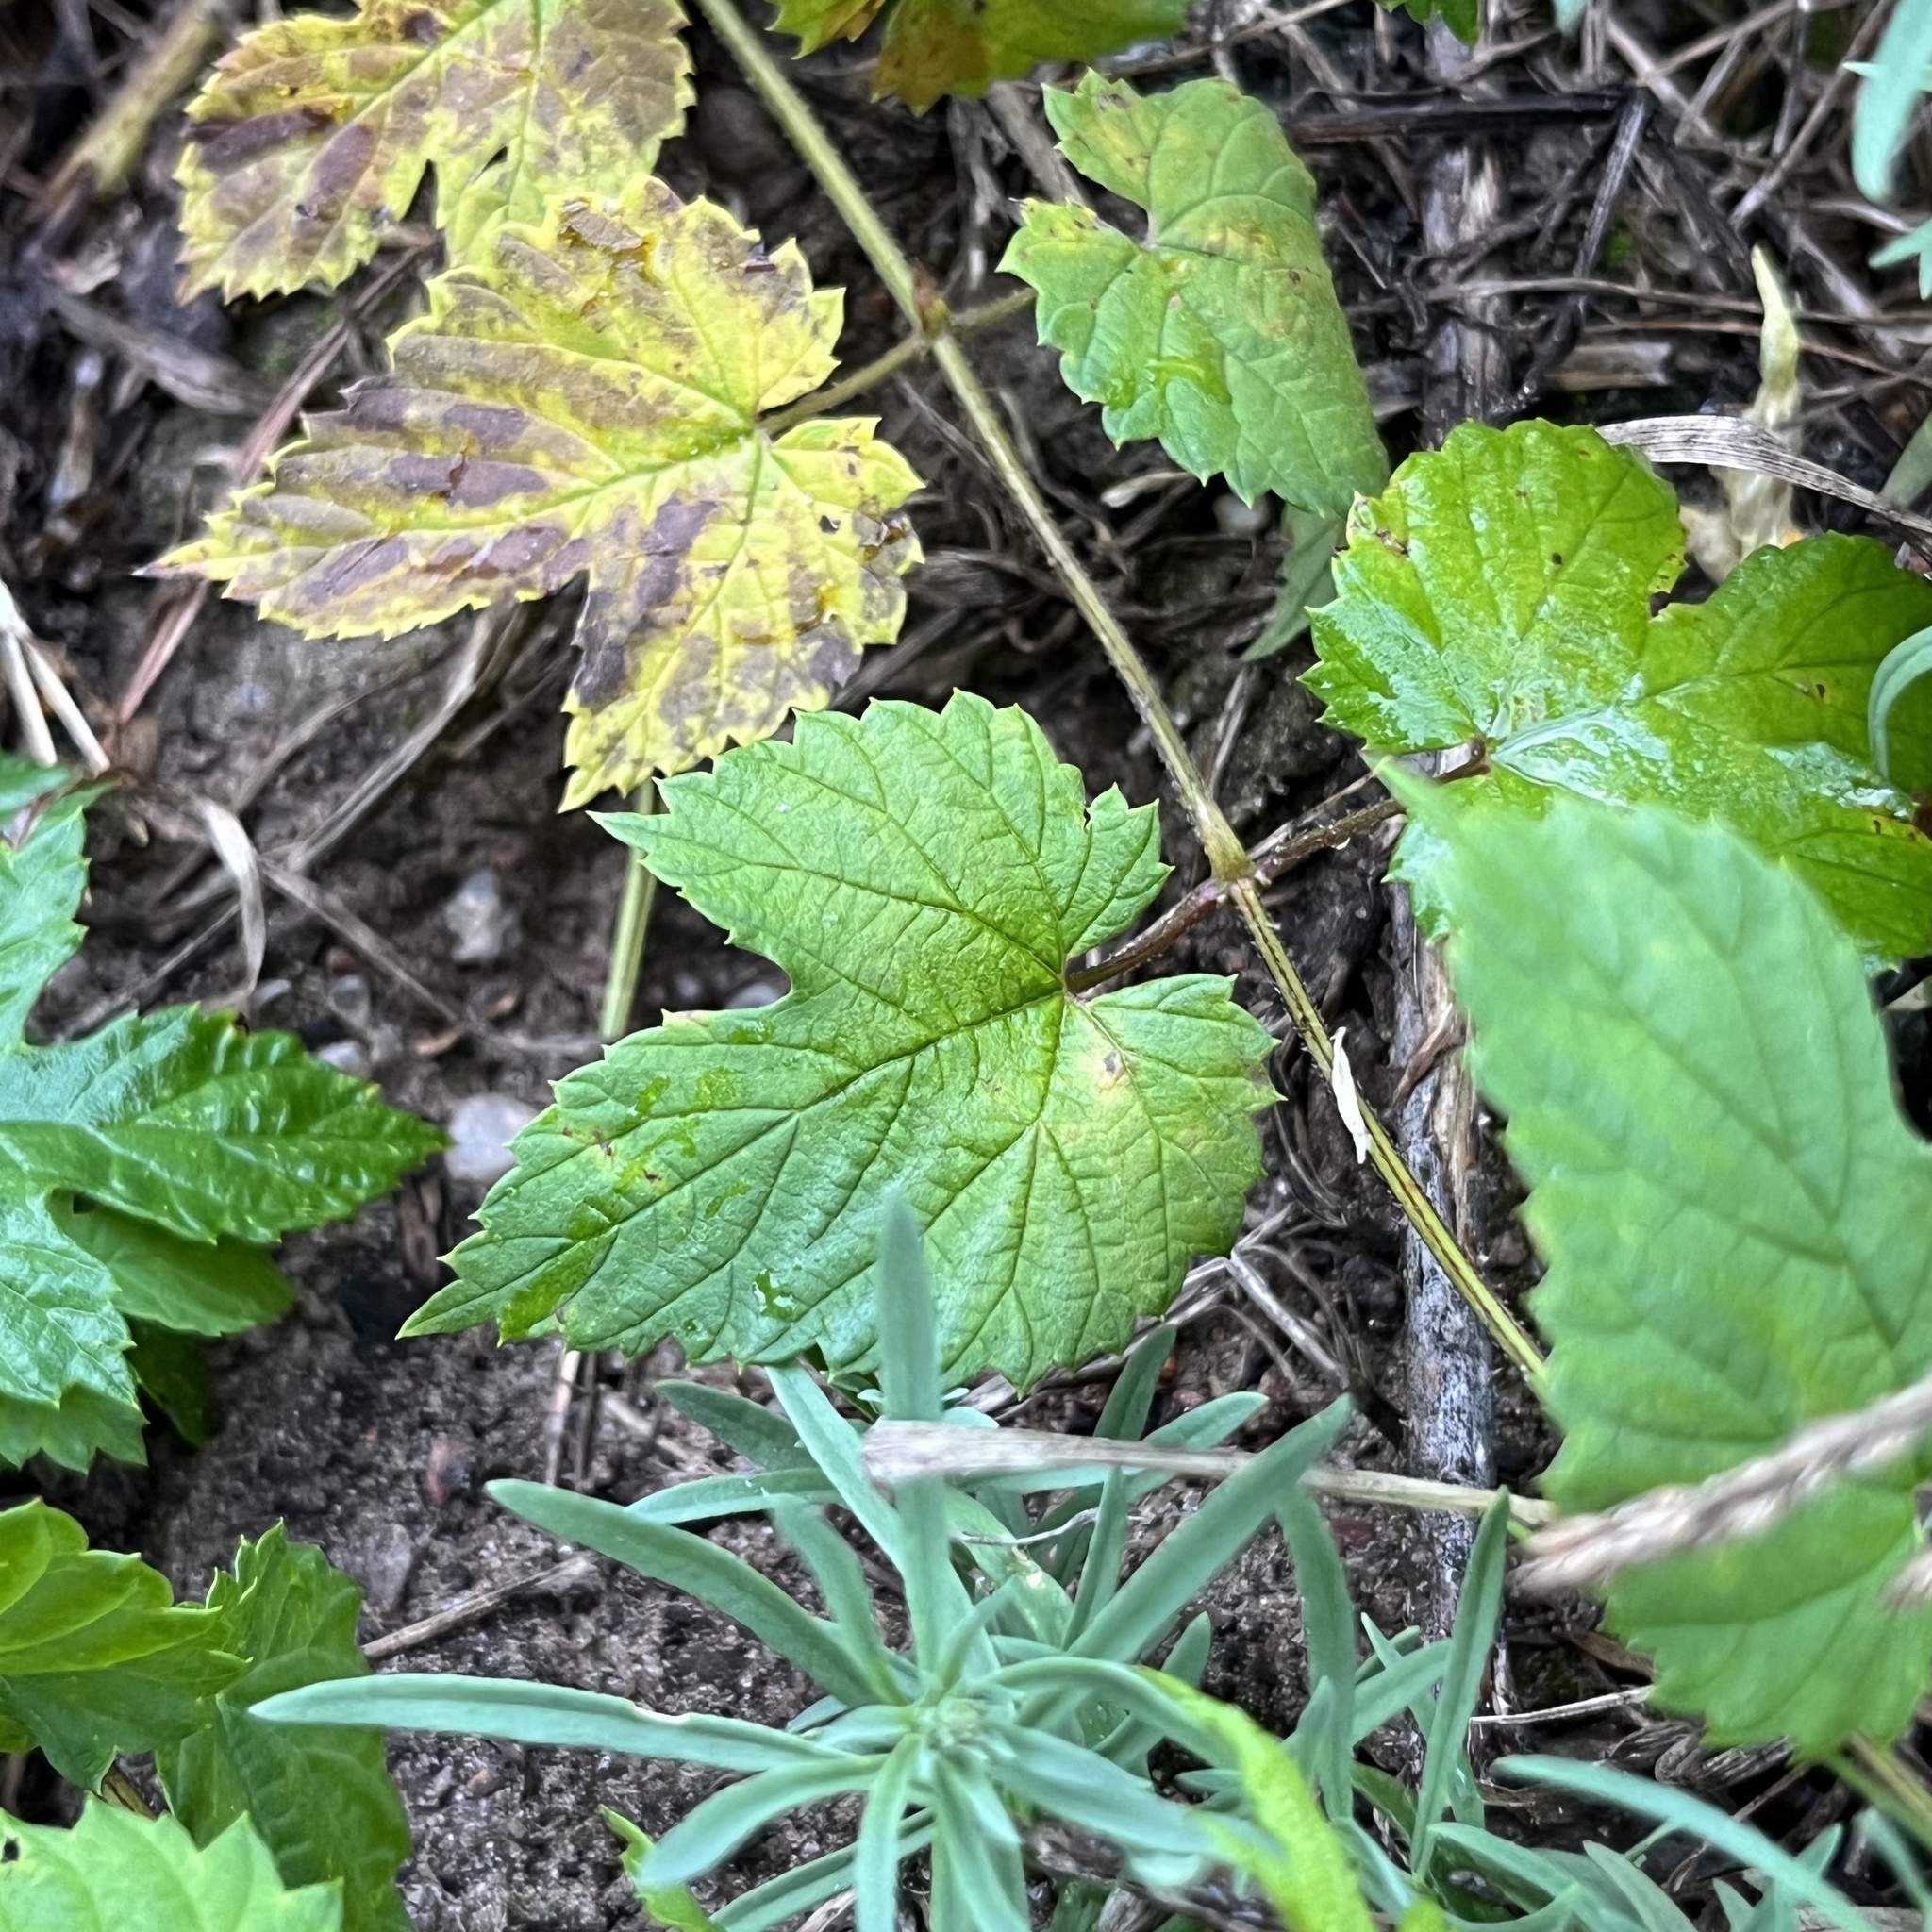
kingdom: Plantae
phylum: Tracheophyta
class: Magnoliopsida
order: Rosales
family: Cannabaceae
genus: Humulus
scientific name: Humulus lupulus
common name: Hop
